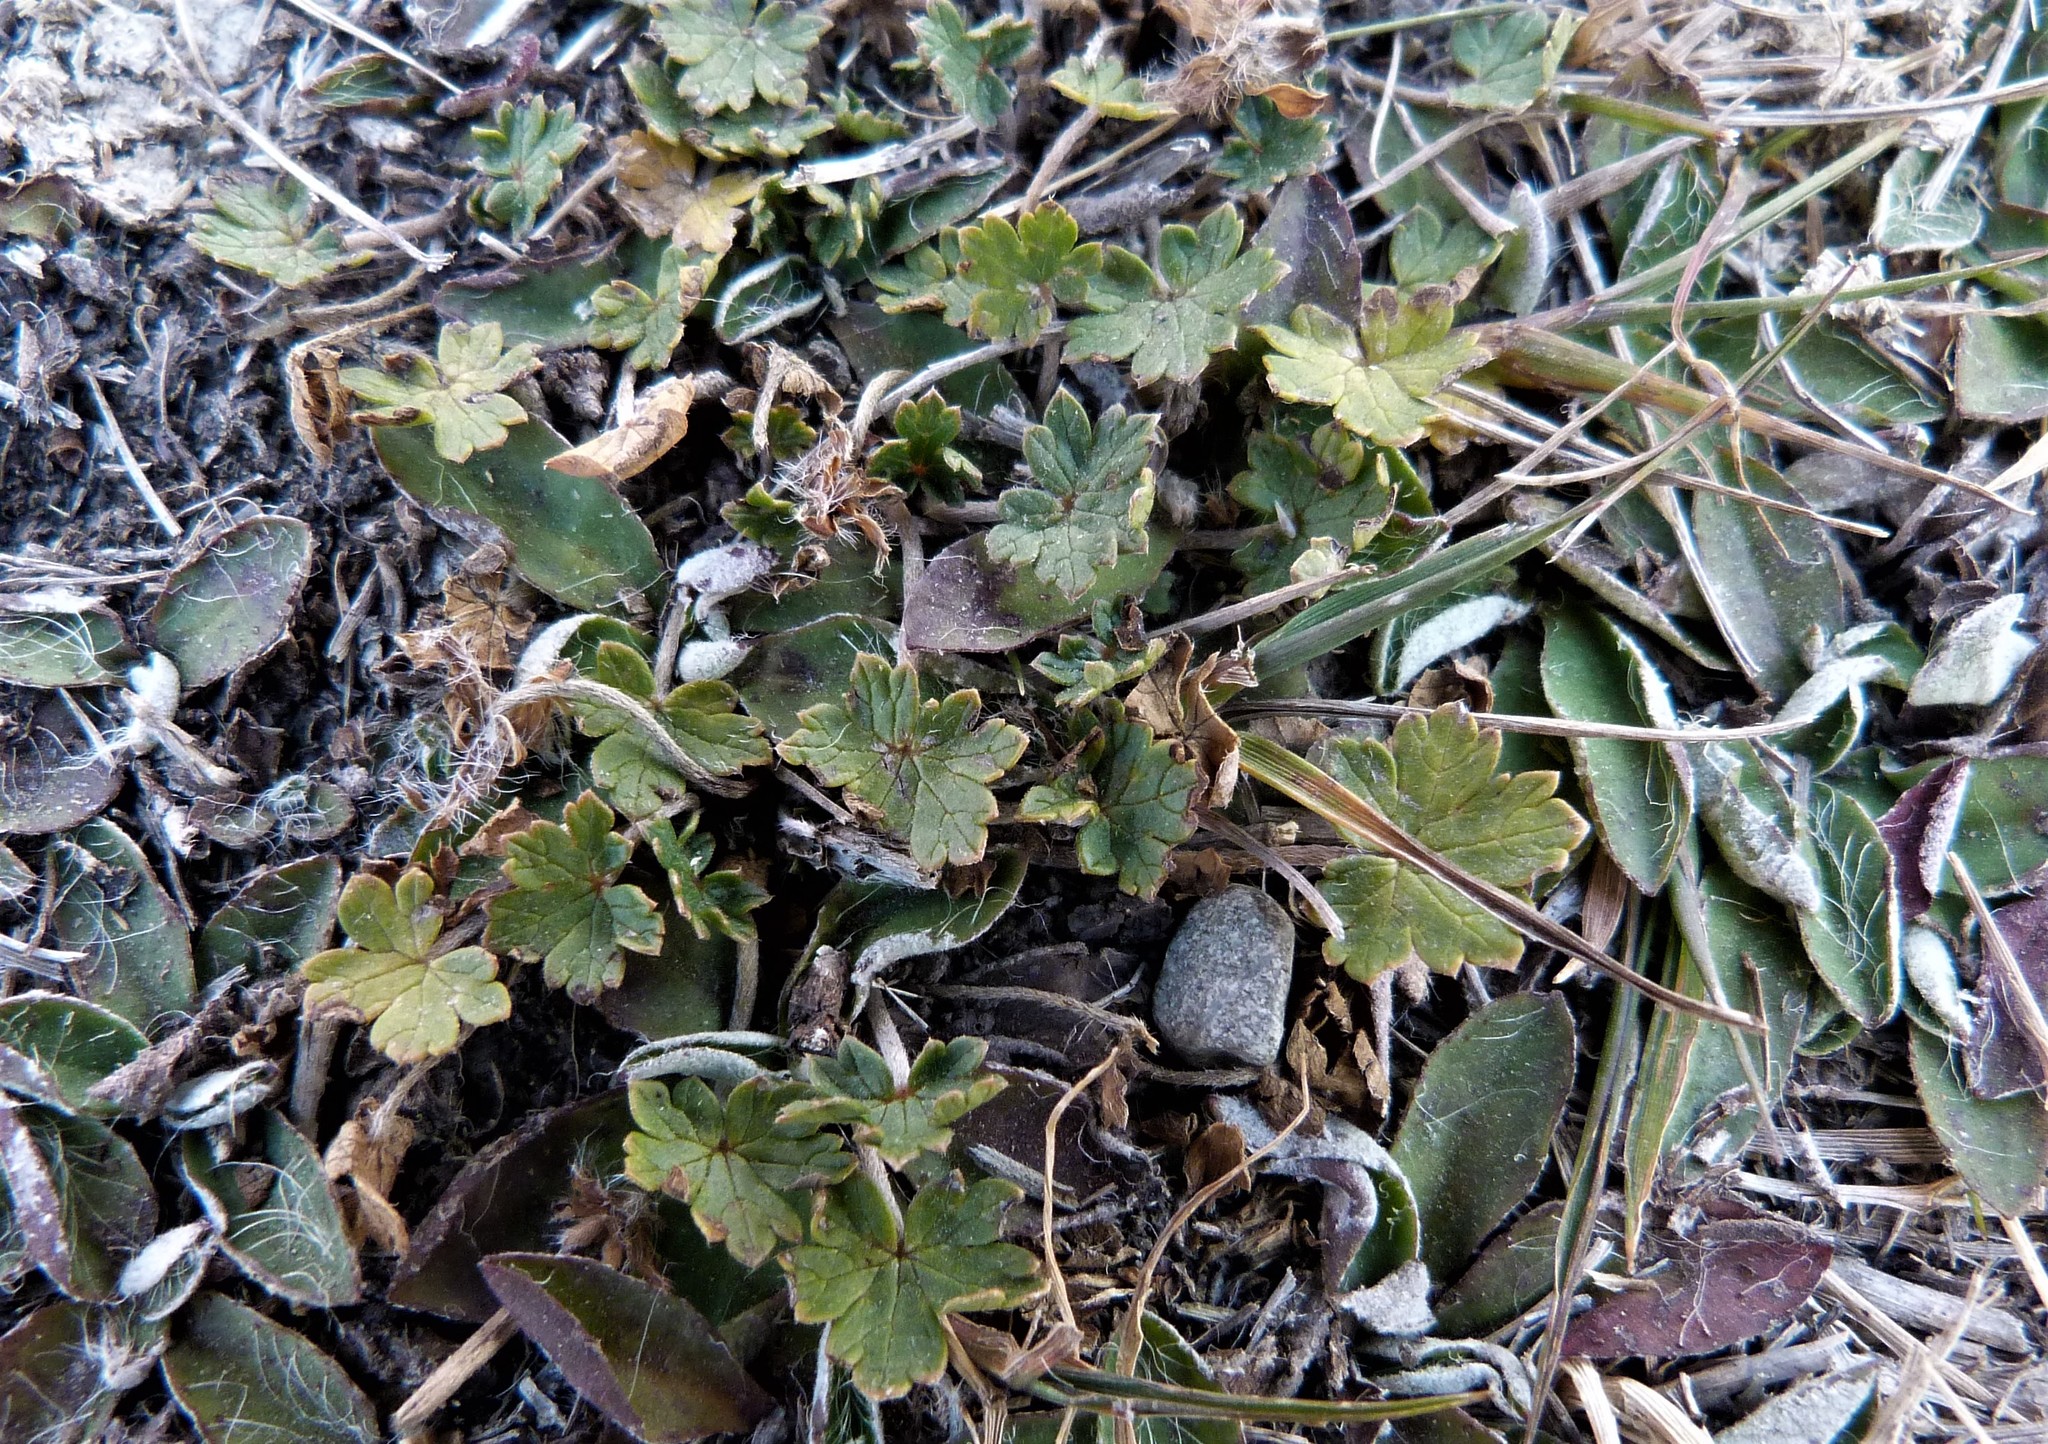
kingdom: Plantae
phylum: Tracheophyta
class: Magnoliopsida
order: Geraniales
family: Geraniaceae
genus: Geranium
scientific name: Geranium brevicaule
